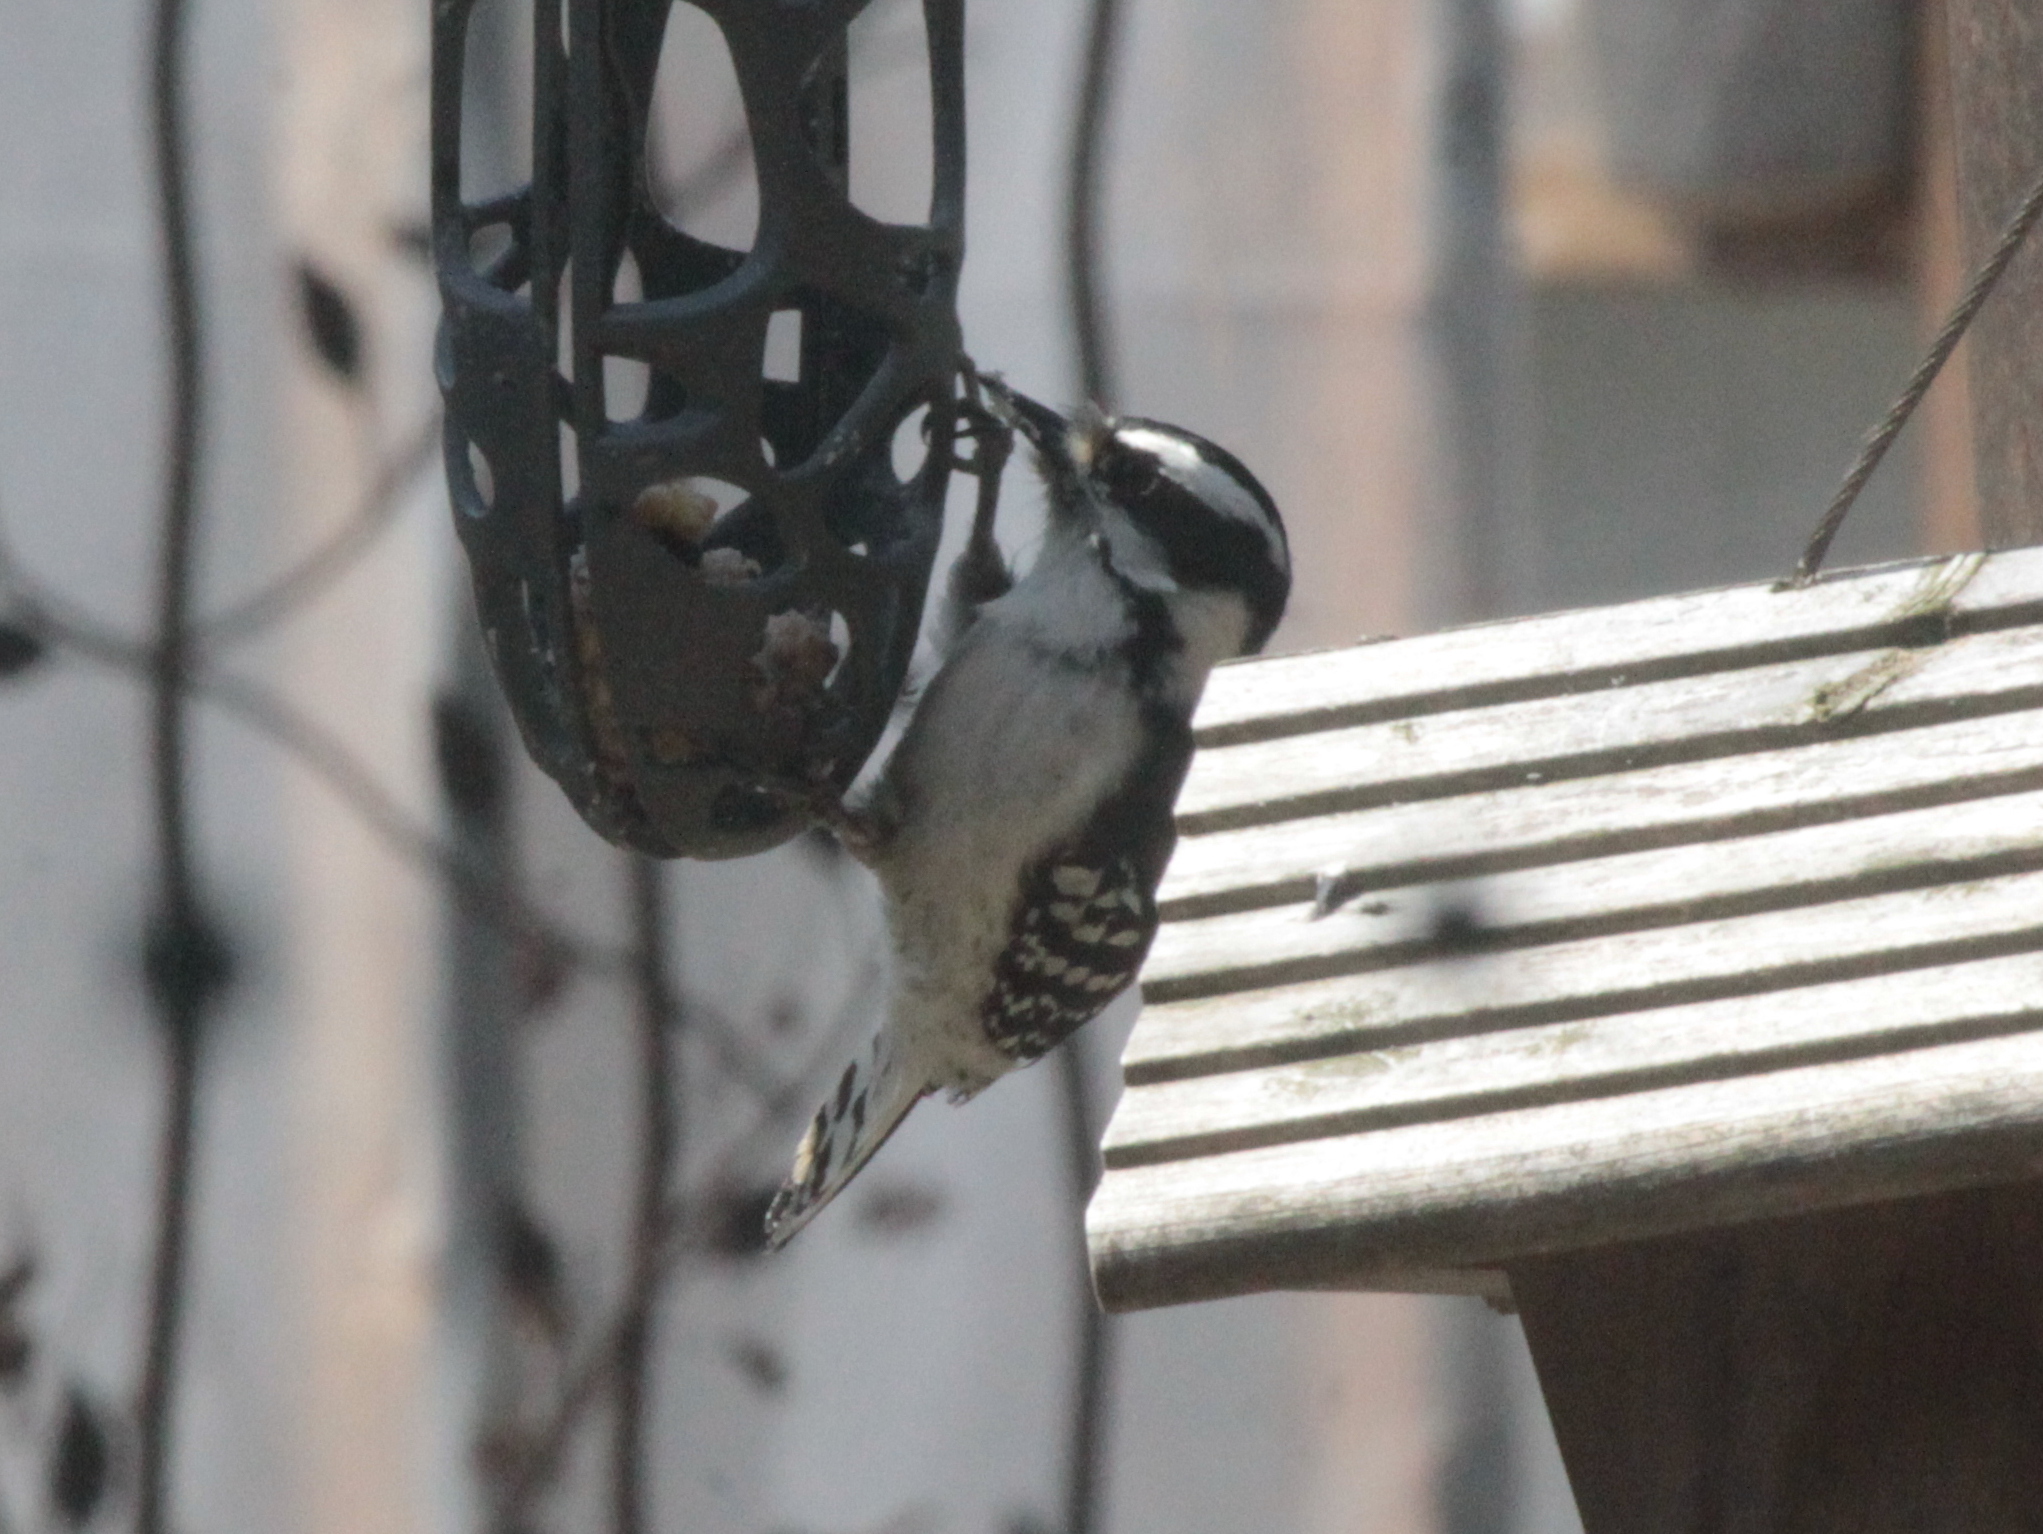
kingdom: Animalia
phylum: Chordata
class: Aves
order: Piciformes
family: Picidae
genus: Dryobates
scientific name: Dryobates pubescens
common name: Downy woodpecker
